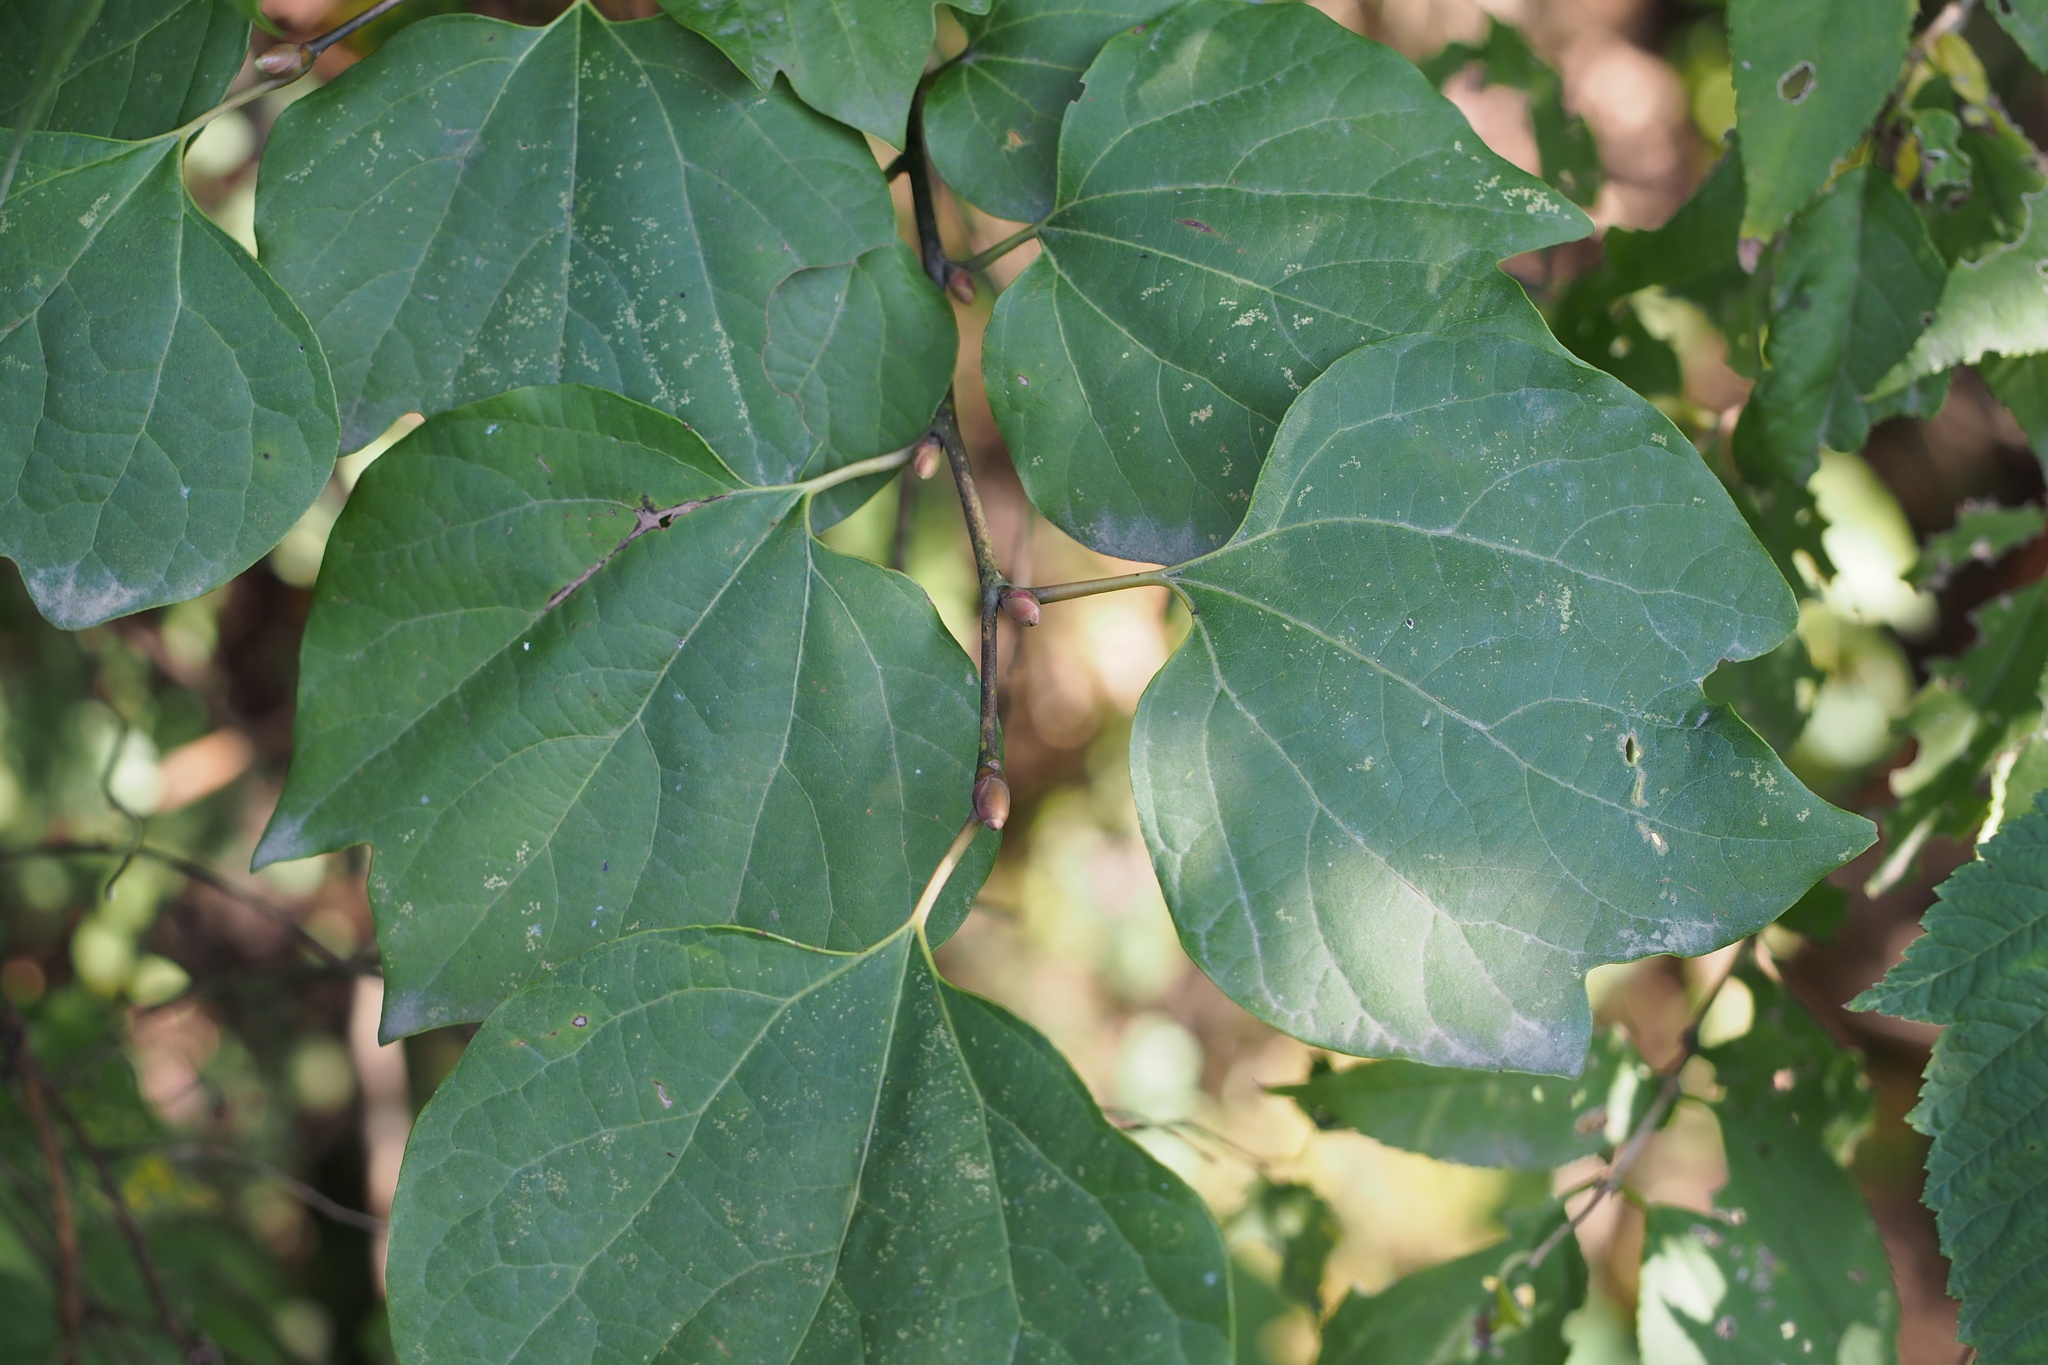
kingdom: Plantae
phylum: Tracheophyta
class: Magnoliopsida
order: Laurales
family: Lauraceae
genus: Lindera
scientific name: Lindera obtusiloba
